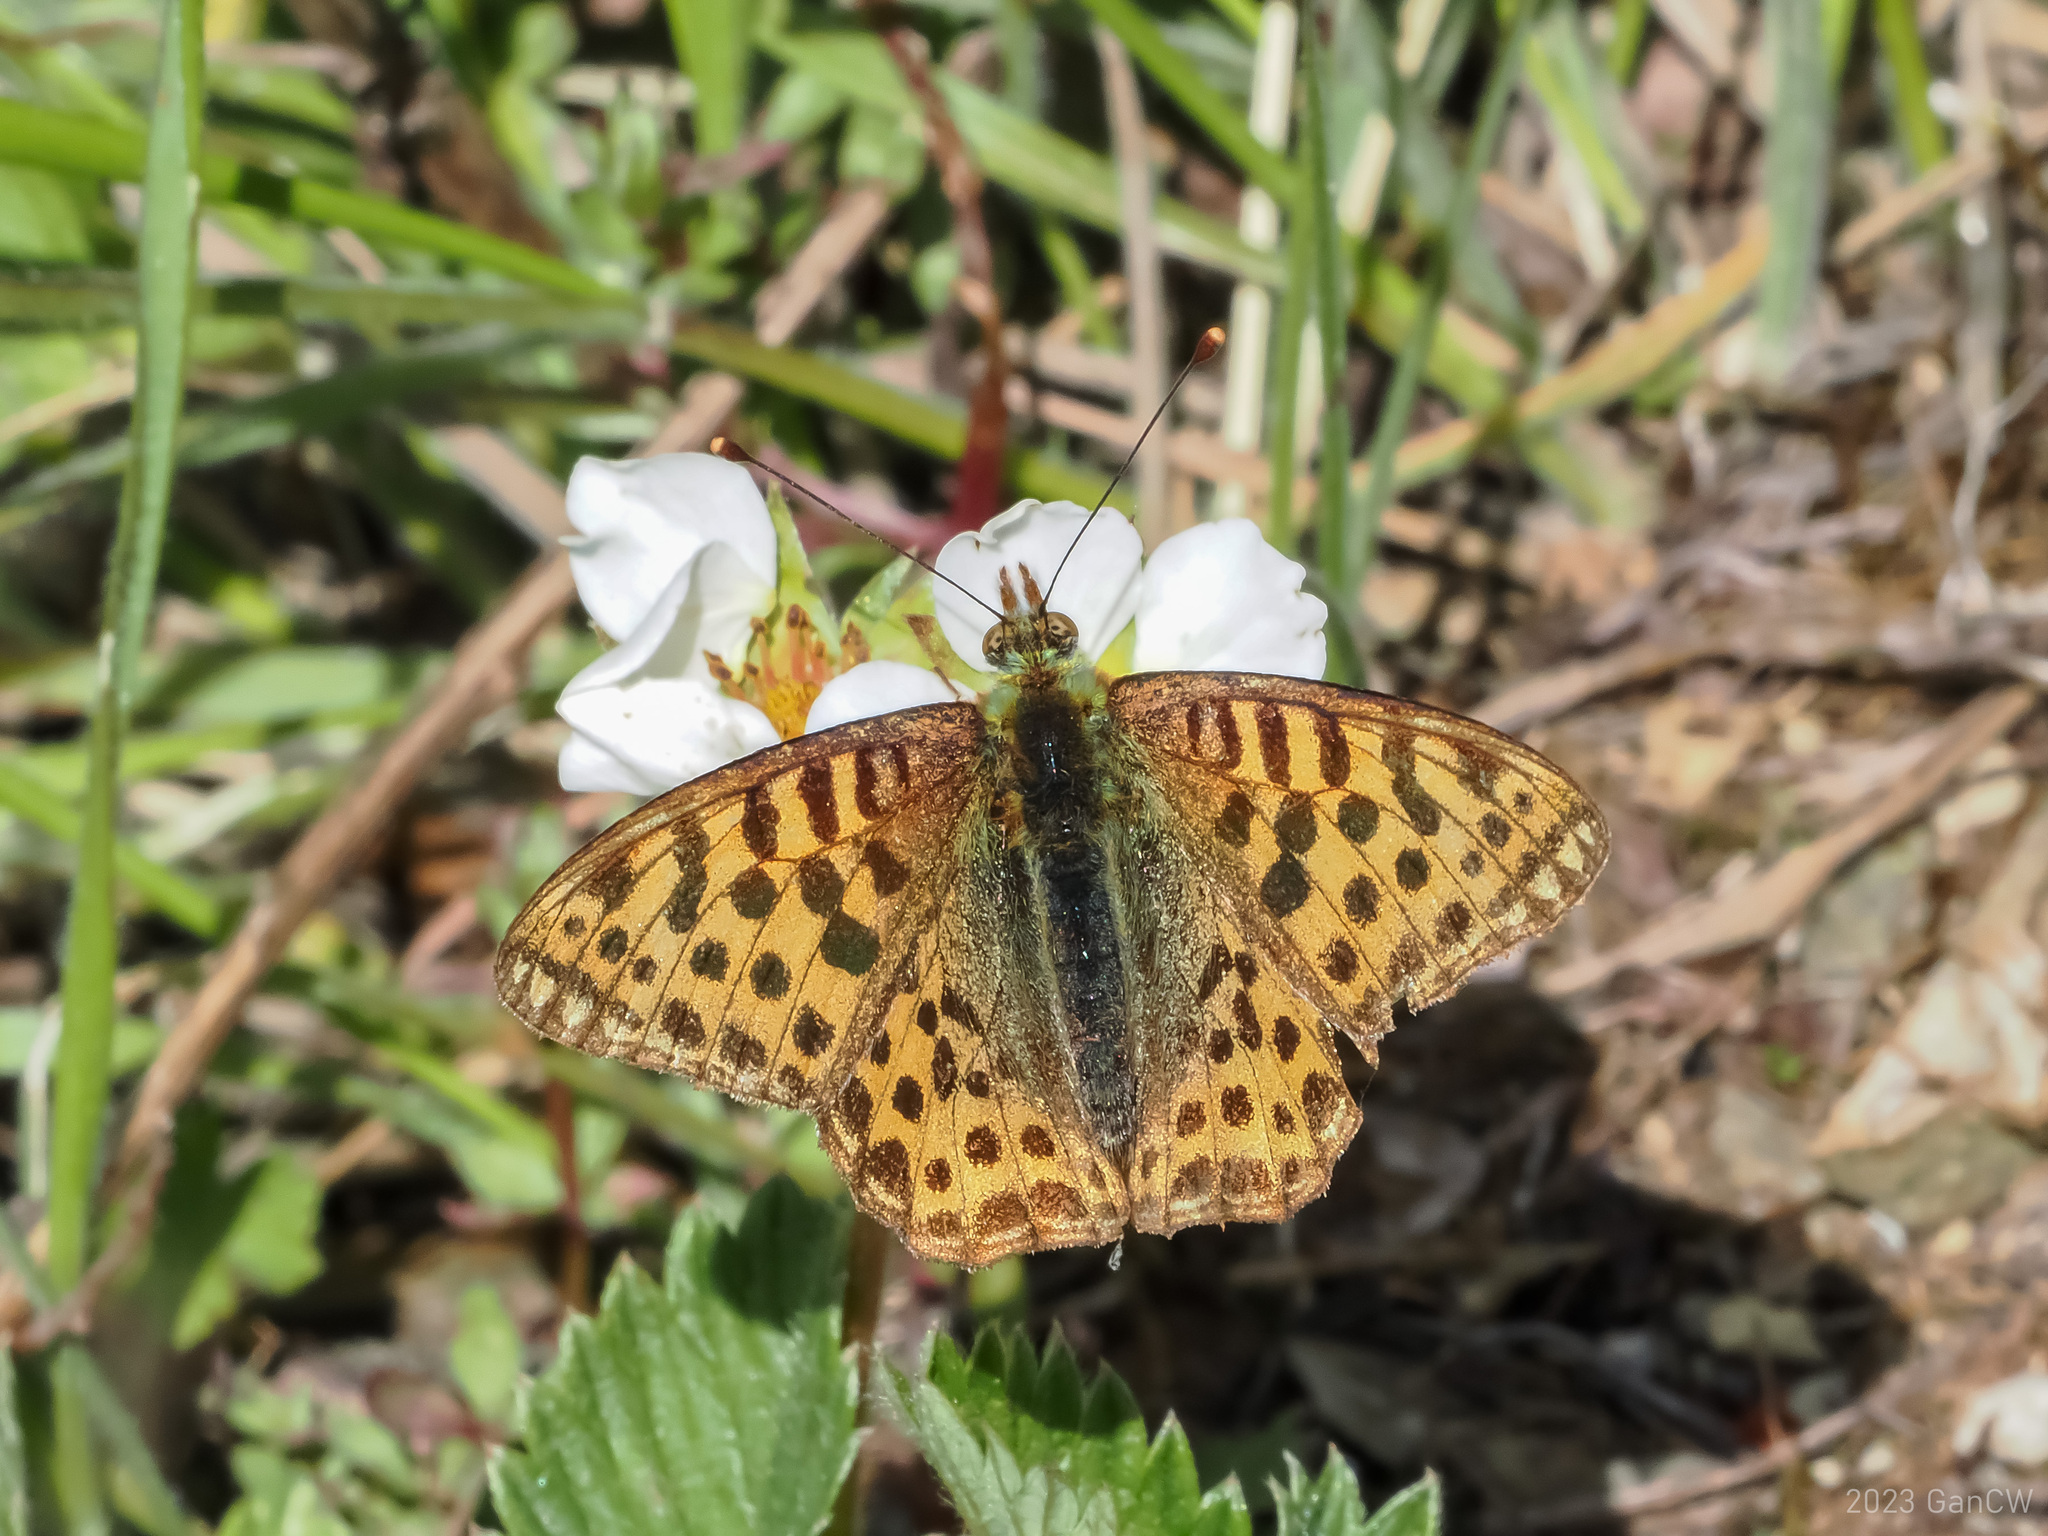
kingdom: Animalia
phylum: Arthropoda
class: Insecta
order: Lepidoptera
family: Nymphalidae
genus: Issoria
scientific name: Issoria
